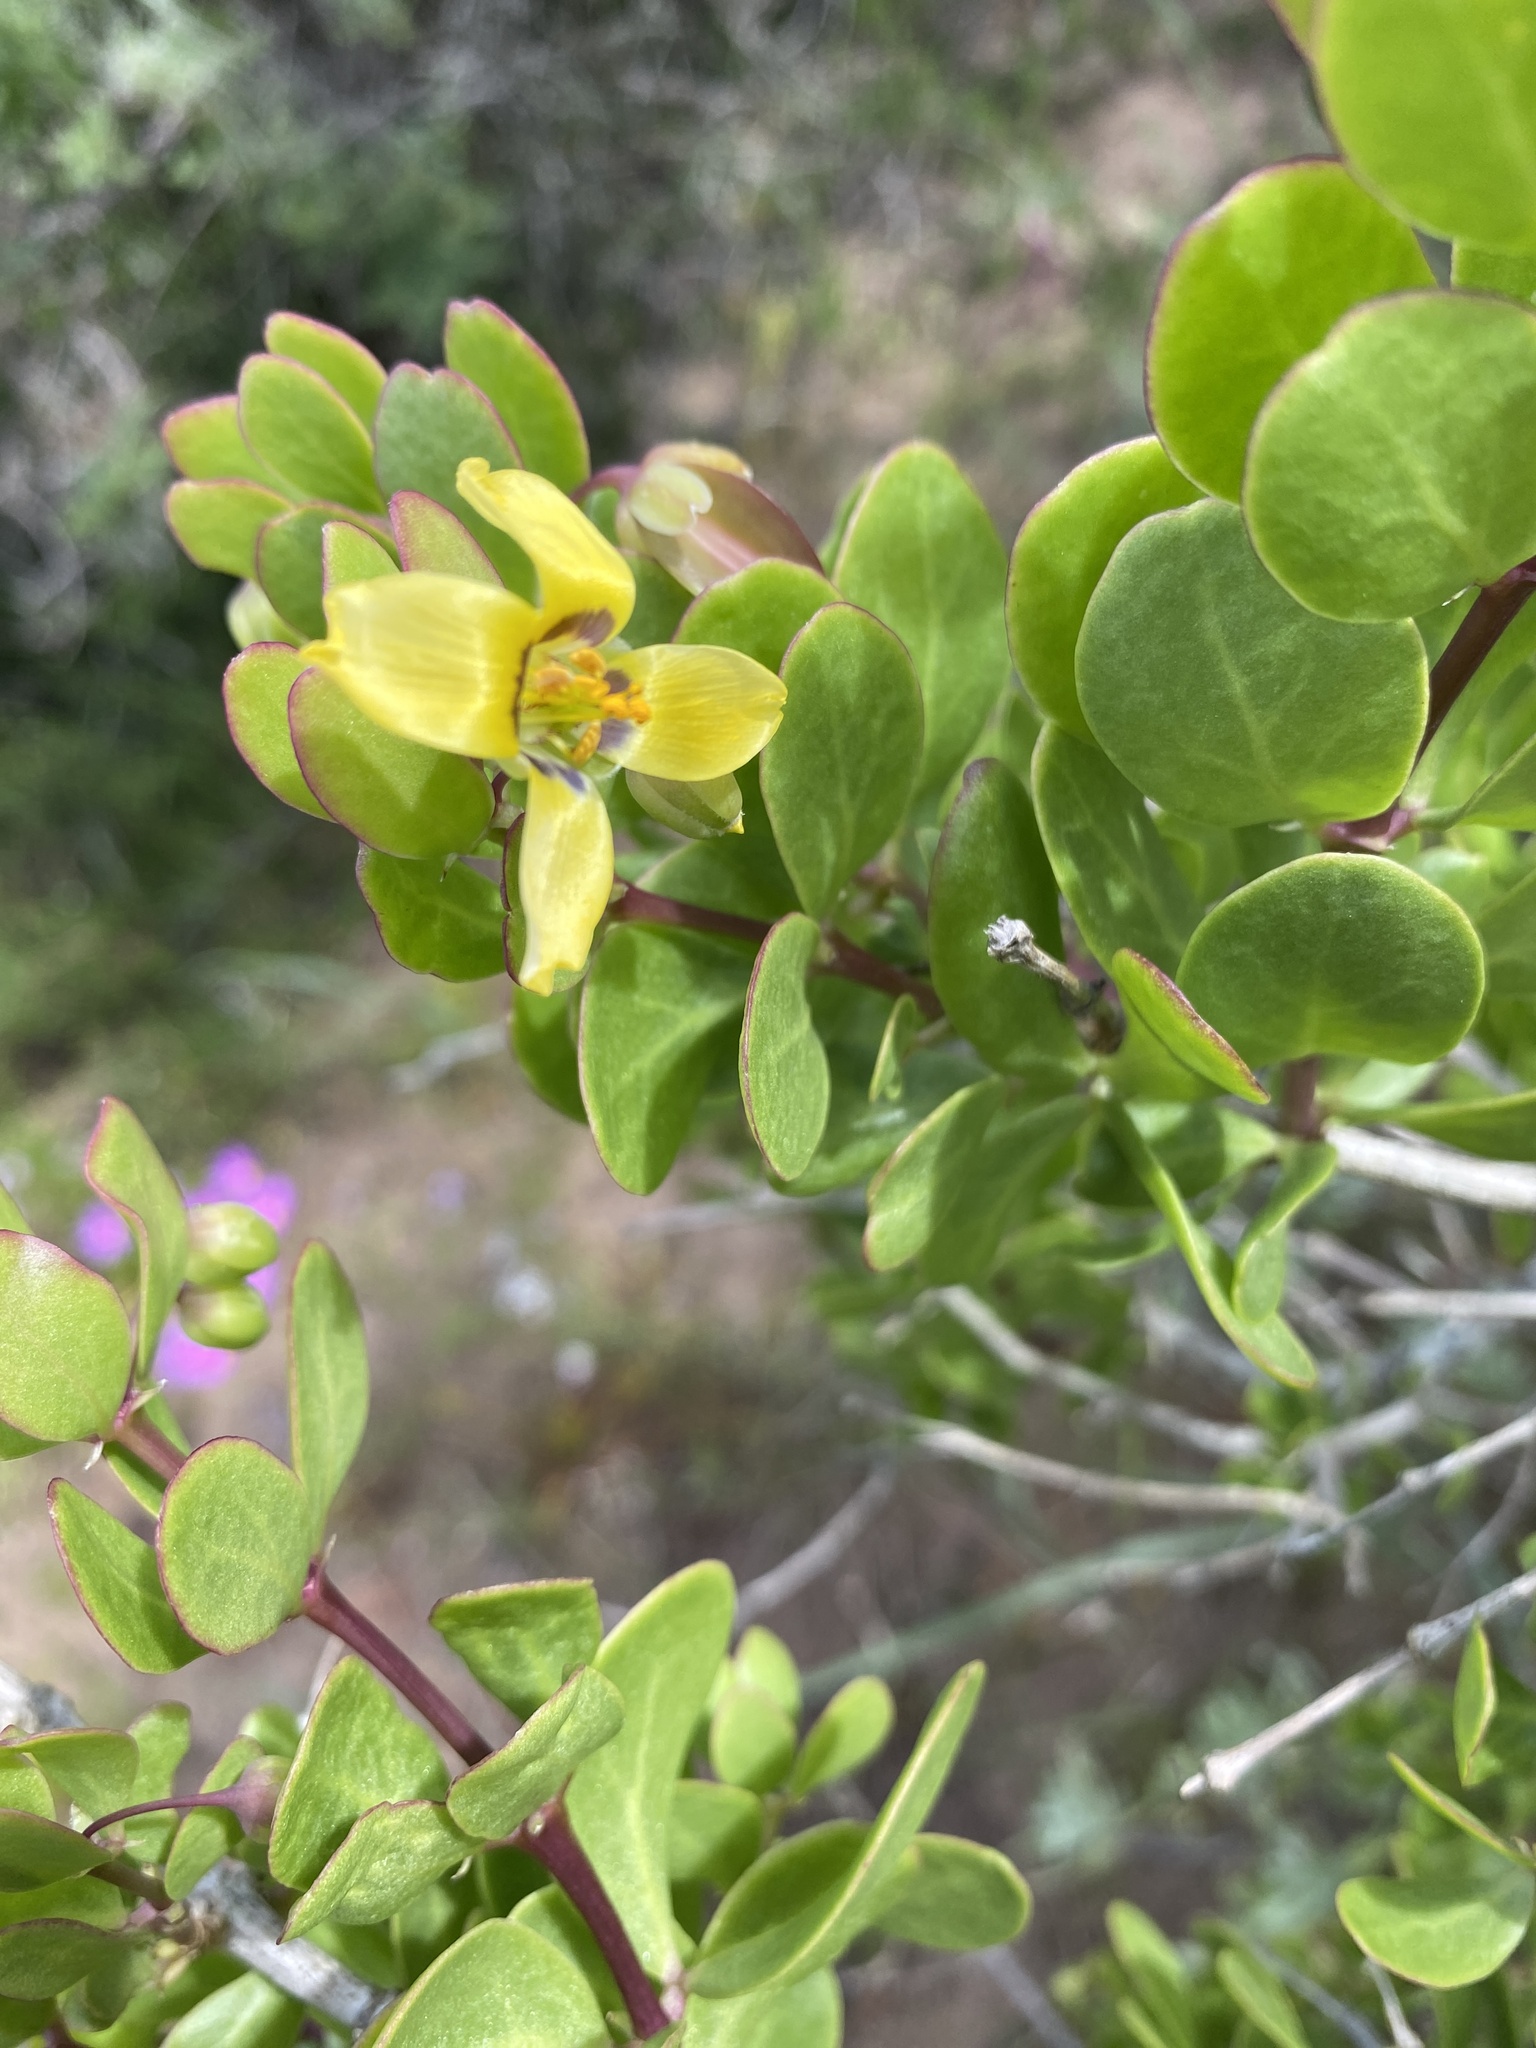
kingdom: Plantae
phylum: Tracheophyta
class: Magnoliopsida
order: Zygophyllales
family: Zygophyllaceae
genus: Roepera
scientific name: Roepera morgsana
